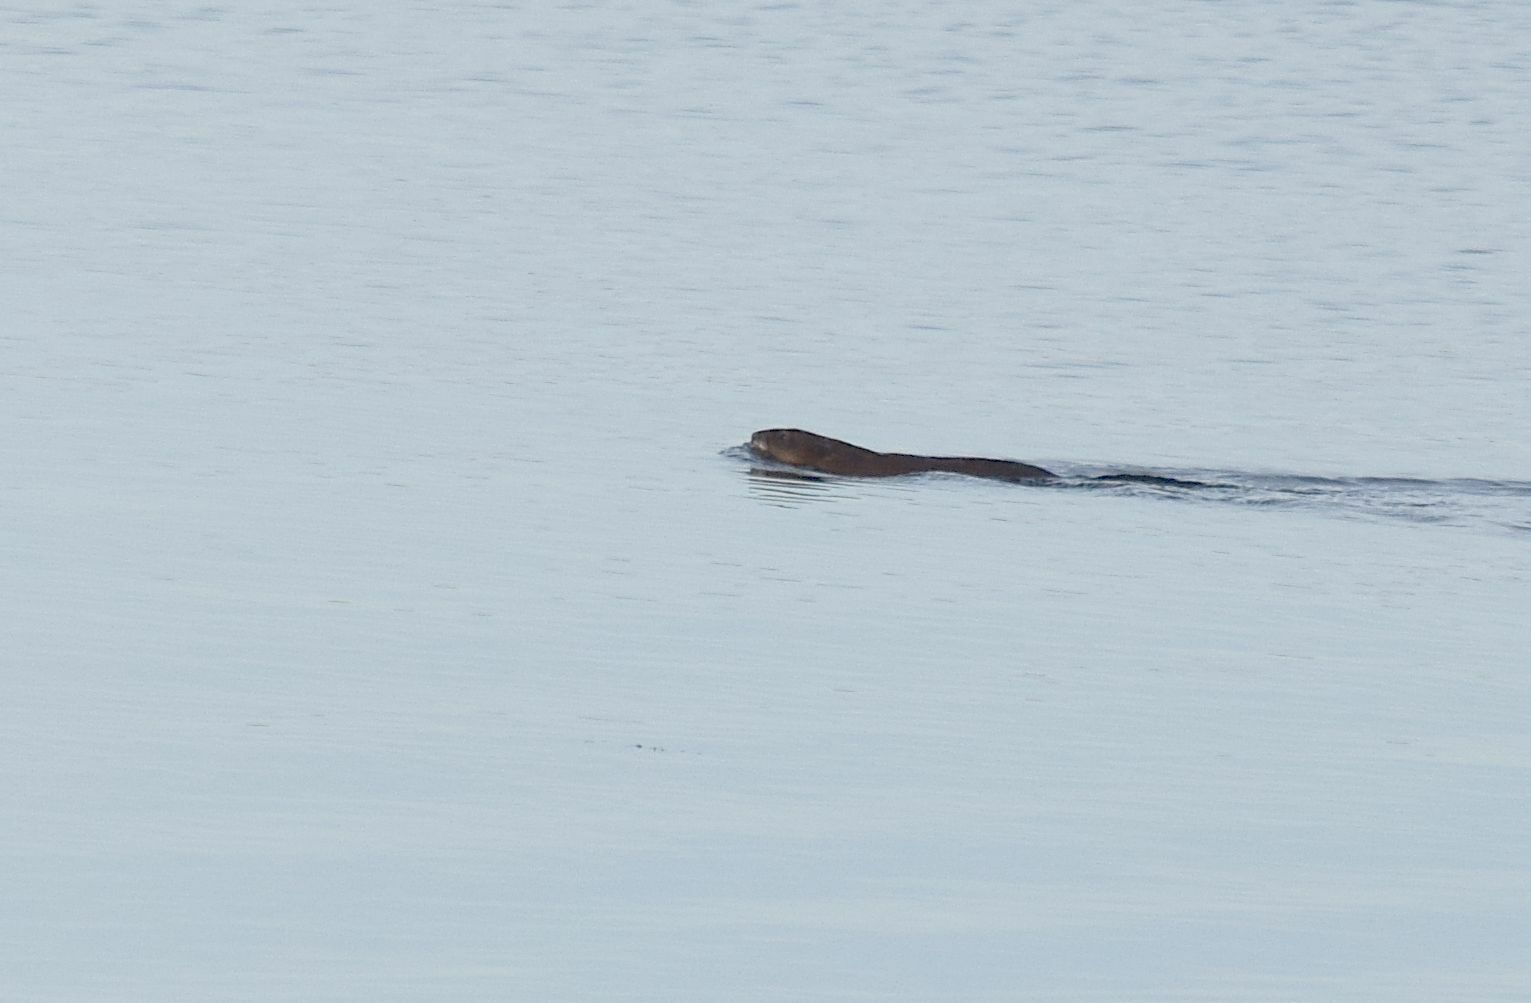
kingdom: Animalia
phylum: Chordata
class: Mammalia
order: Rodentia
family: Cricetidae
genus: Ondatra
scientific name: Ondatra zibethicus
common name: Muskrat
